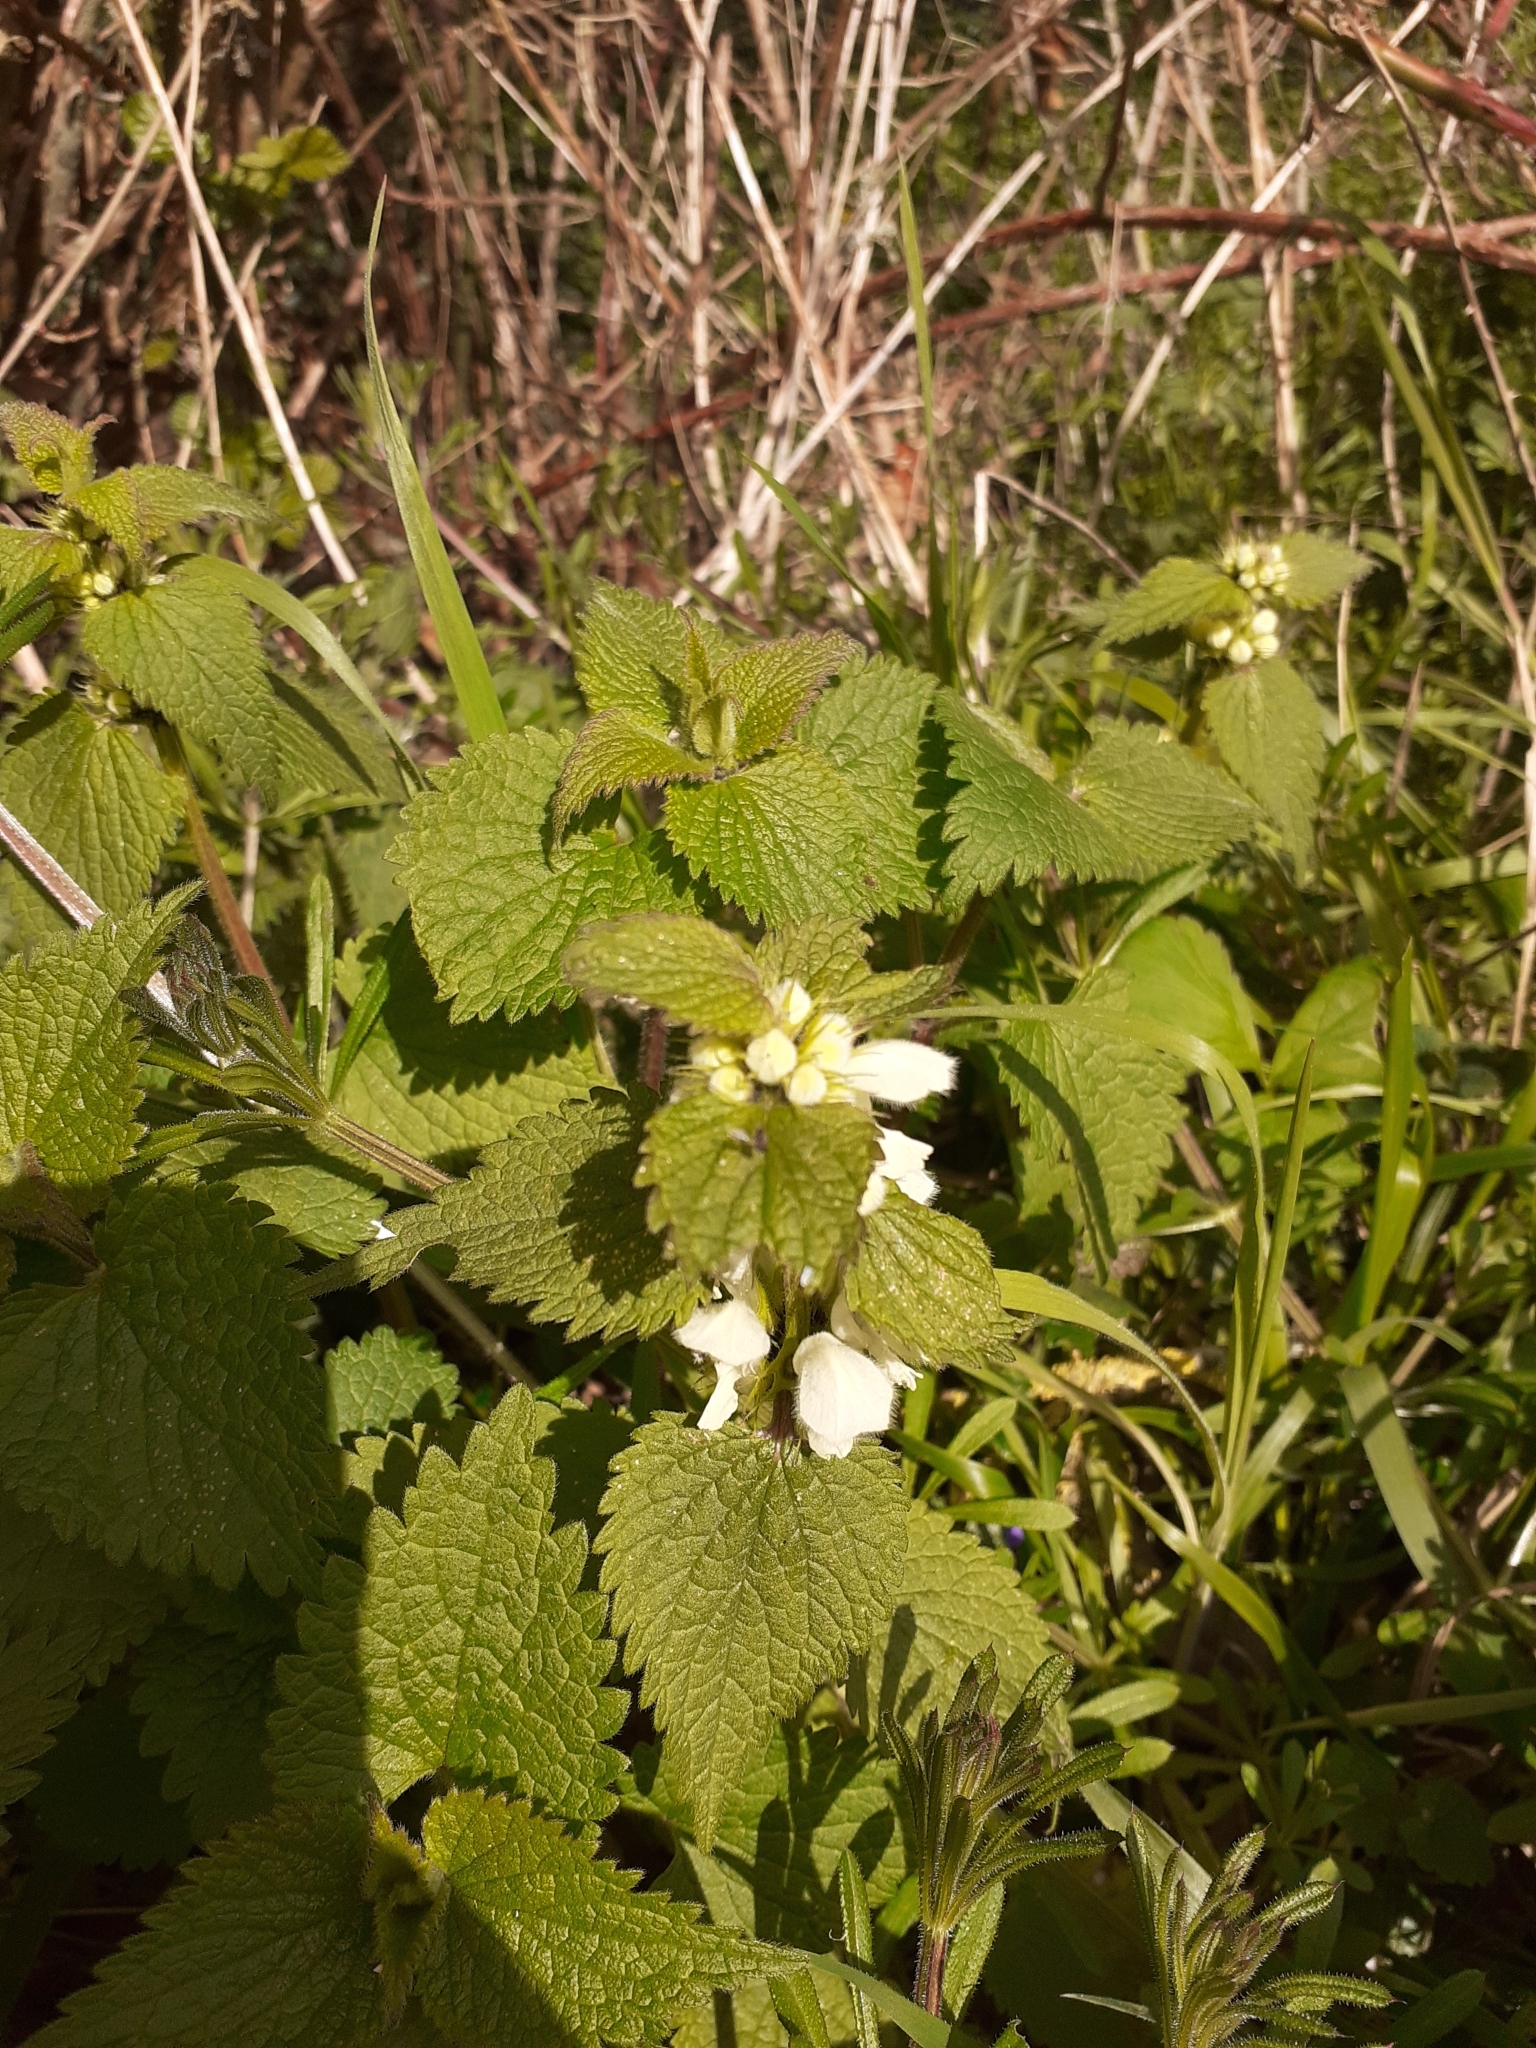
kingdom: Plantae
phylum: Tracheophyta
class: Magnoliopsida
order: Lamiales
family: Lamiaceae
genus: Lamium
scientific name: Lamium album
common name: White dead-nettle
